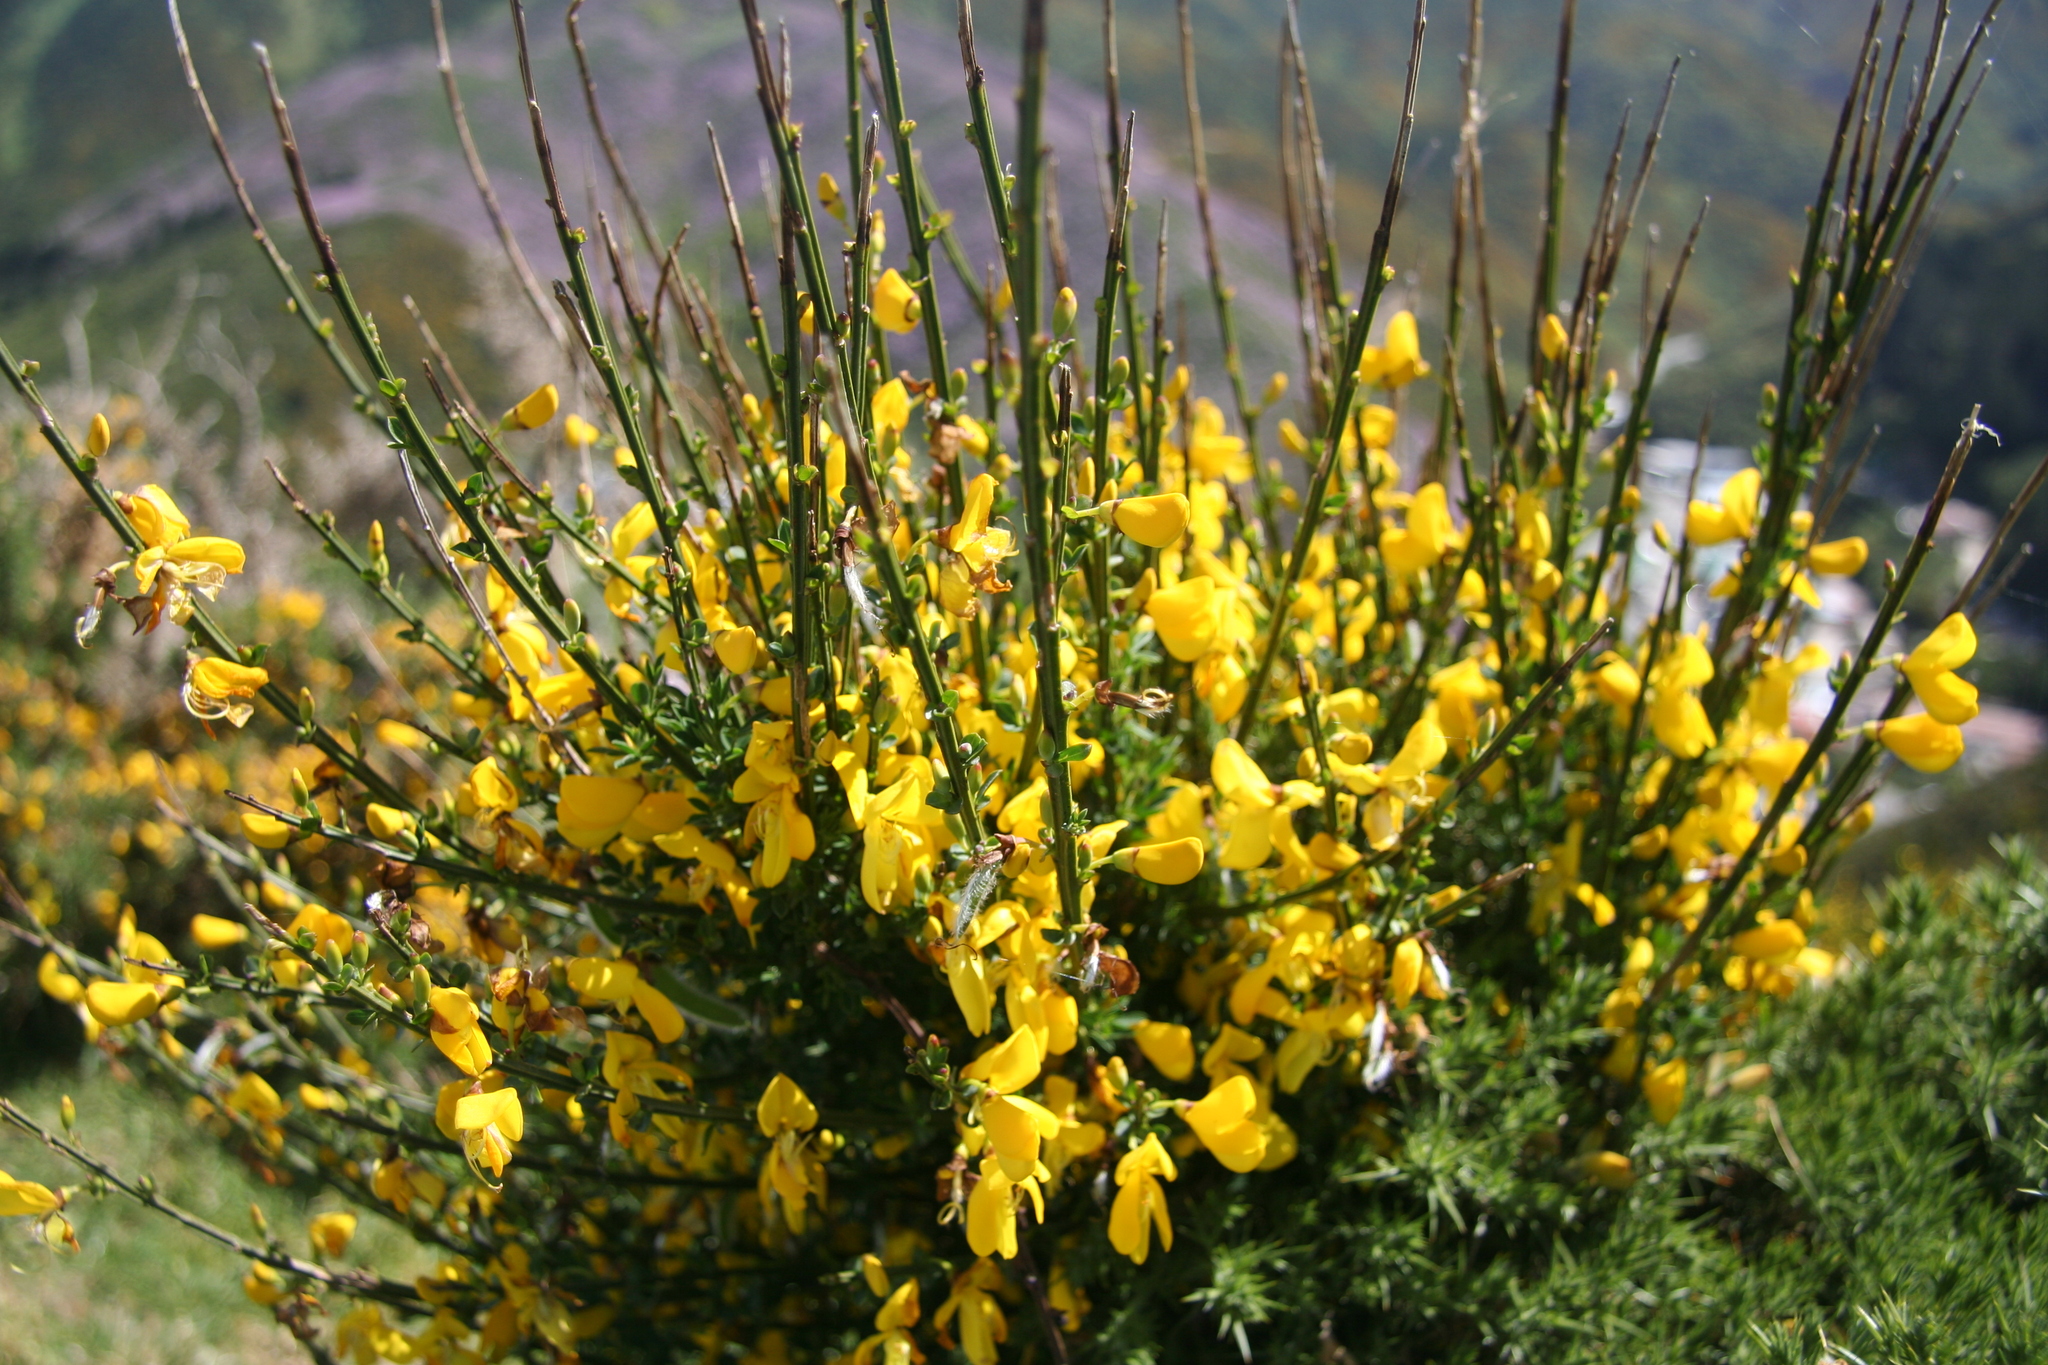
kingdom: Plantae
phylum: Tracheophyta
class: Magnoliopsida
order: Fabales
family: Fabaceae
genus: Cytisus
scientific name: Cytisus scoparius
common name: Scotch broom
